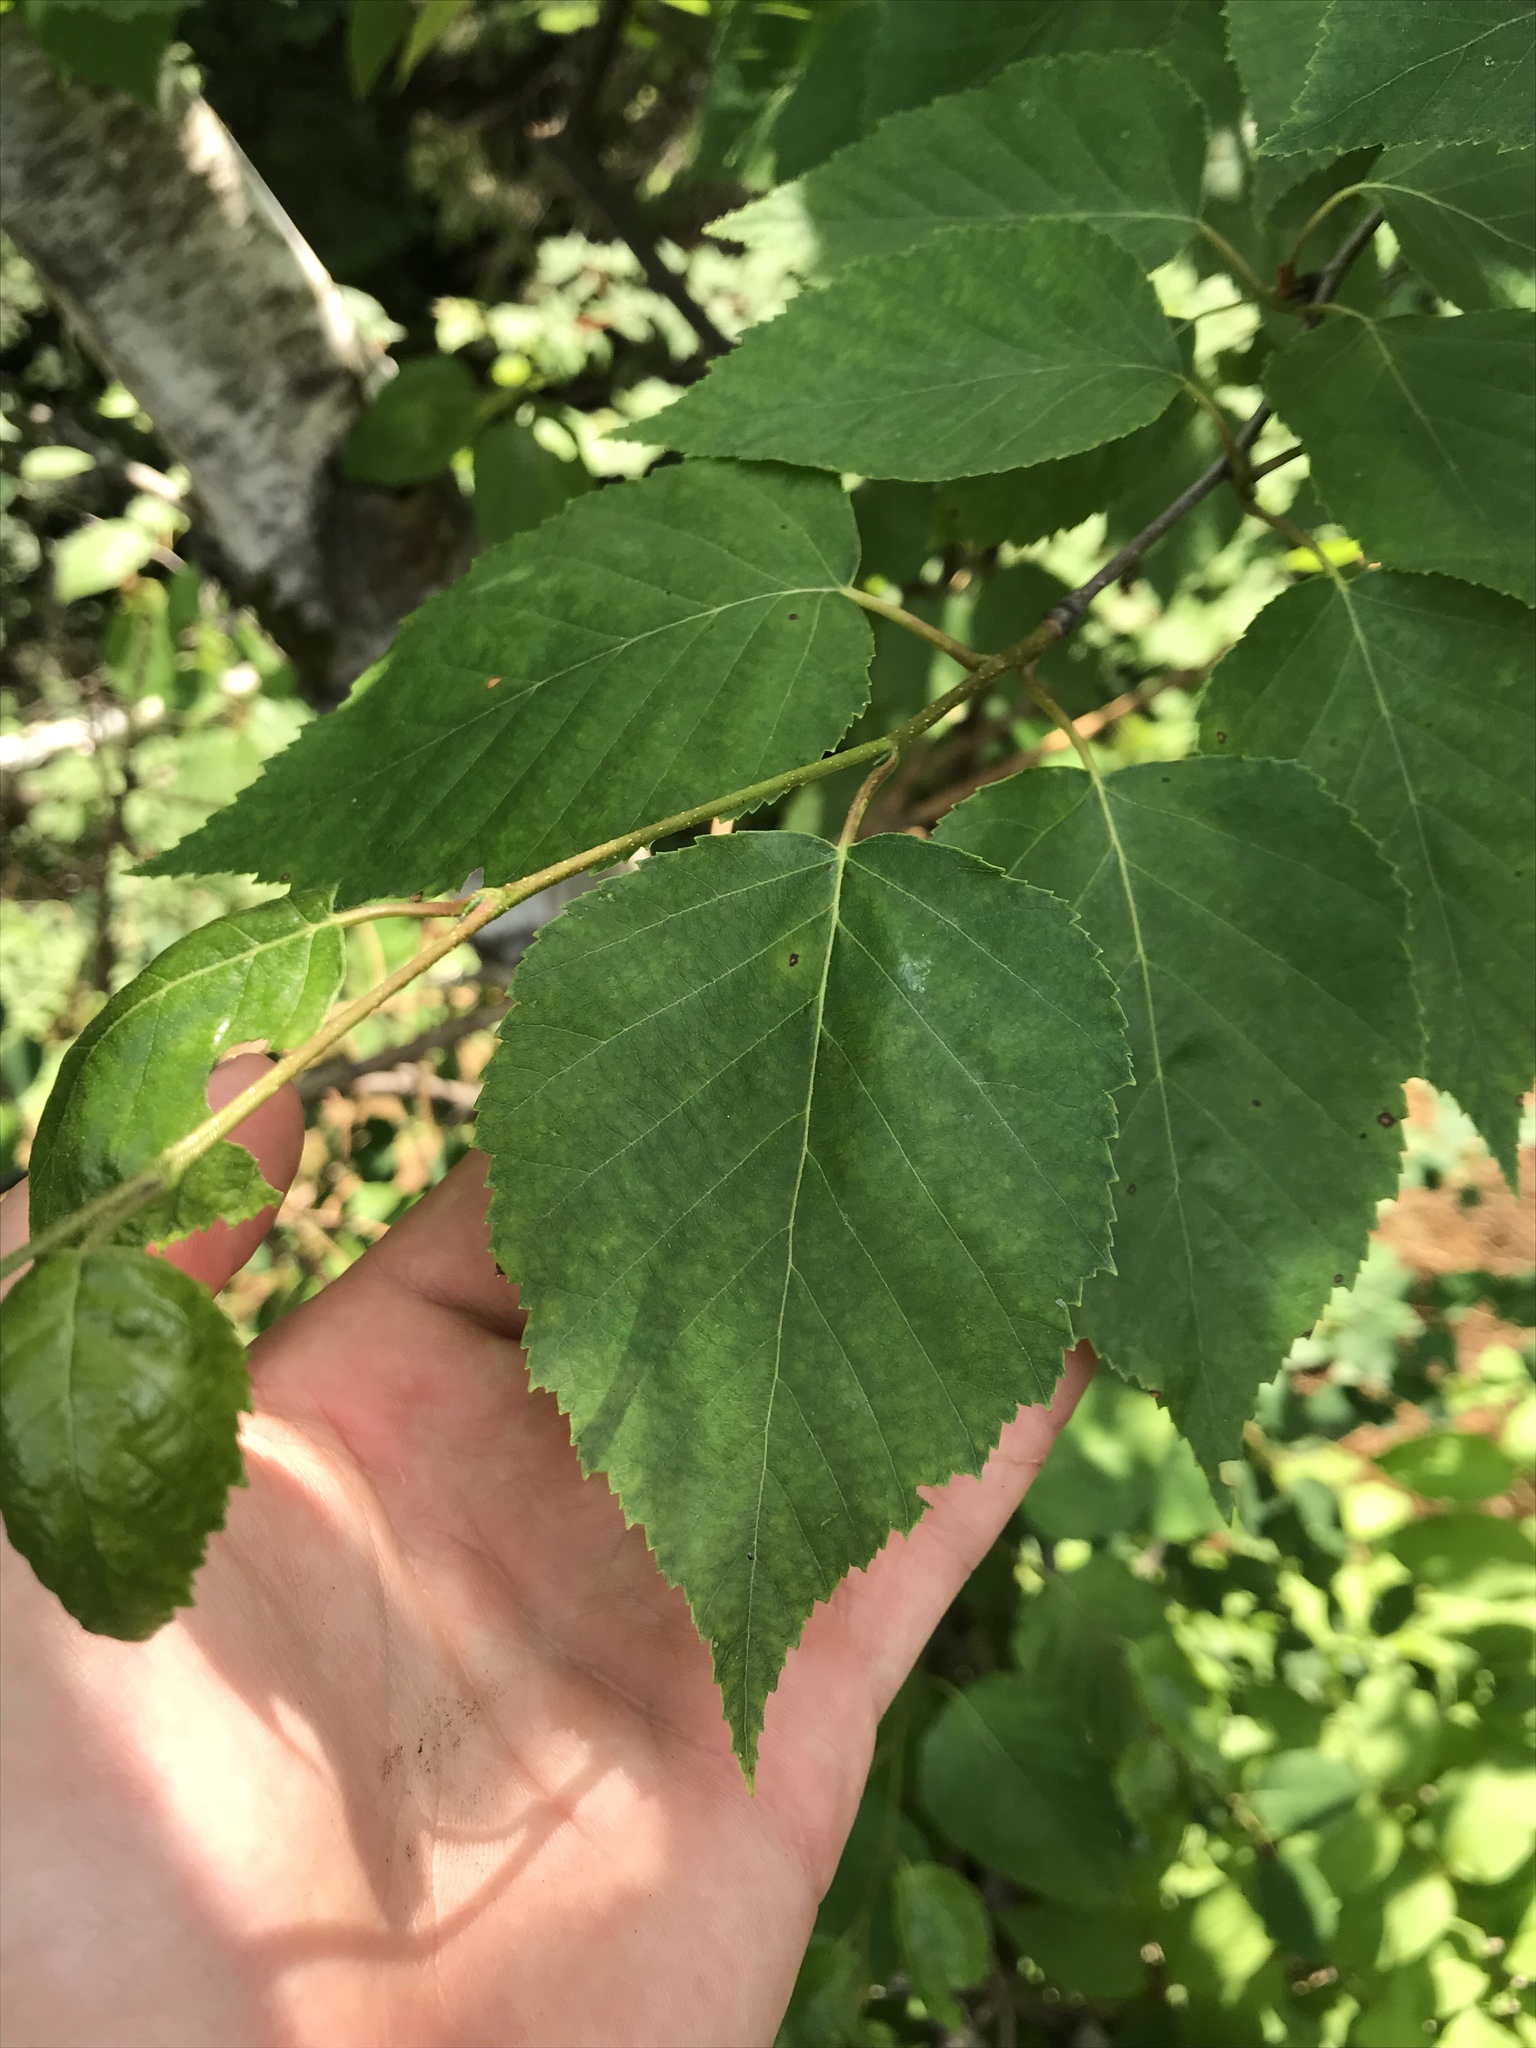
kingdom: Plantae
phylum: Tracheophyta
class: Magnoliopsida
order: Fagales
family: Betulaceae
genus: Betula
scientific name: Betula papyrifera
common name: Paper birch
